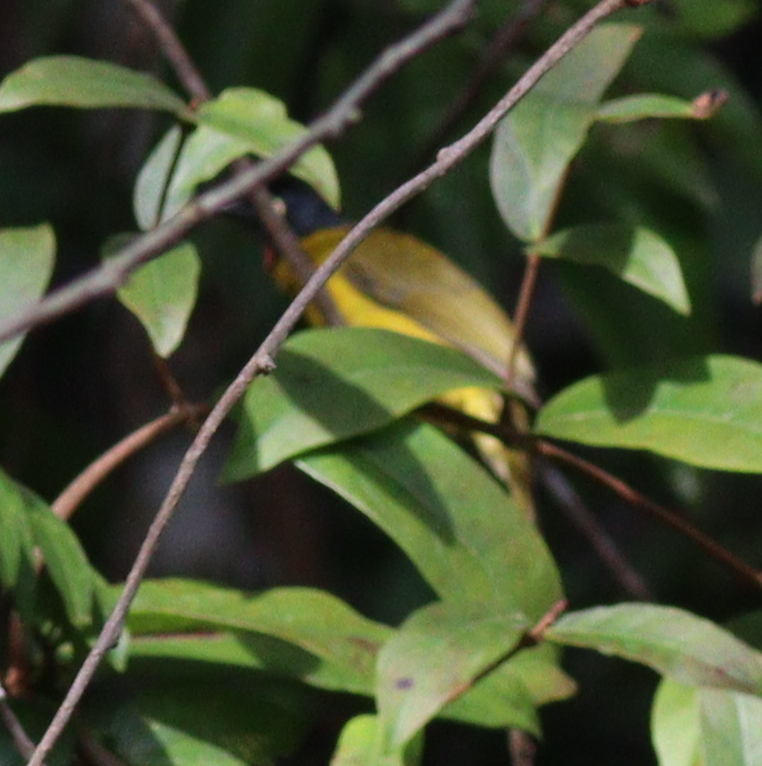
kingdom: Animalia
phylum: Chordata
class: Aves
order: Passeriformes
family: Pycnonotidae
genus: Pycnonotus
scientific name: Pycnonotus flaviventris
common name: Black-crested bulbul
